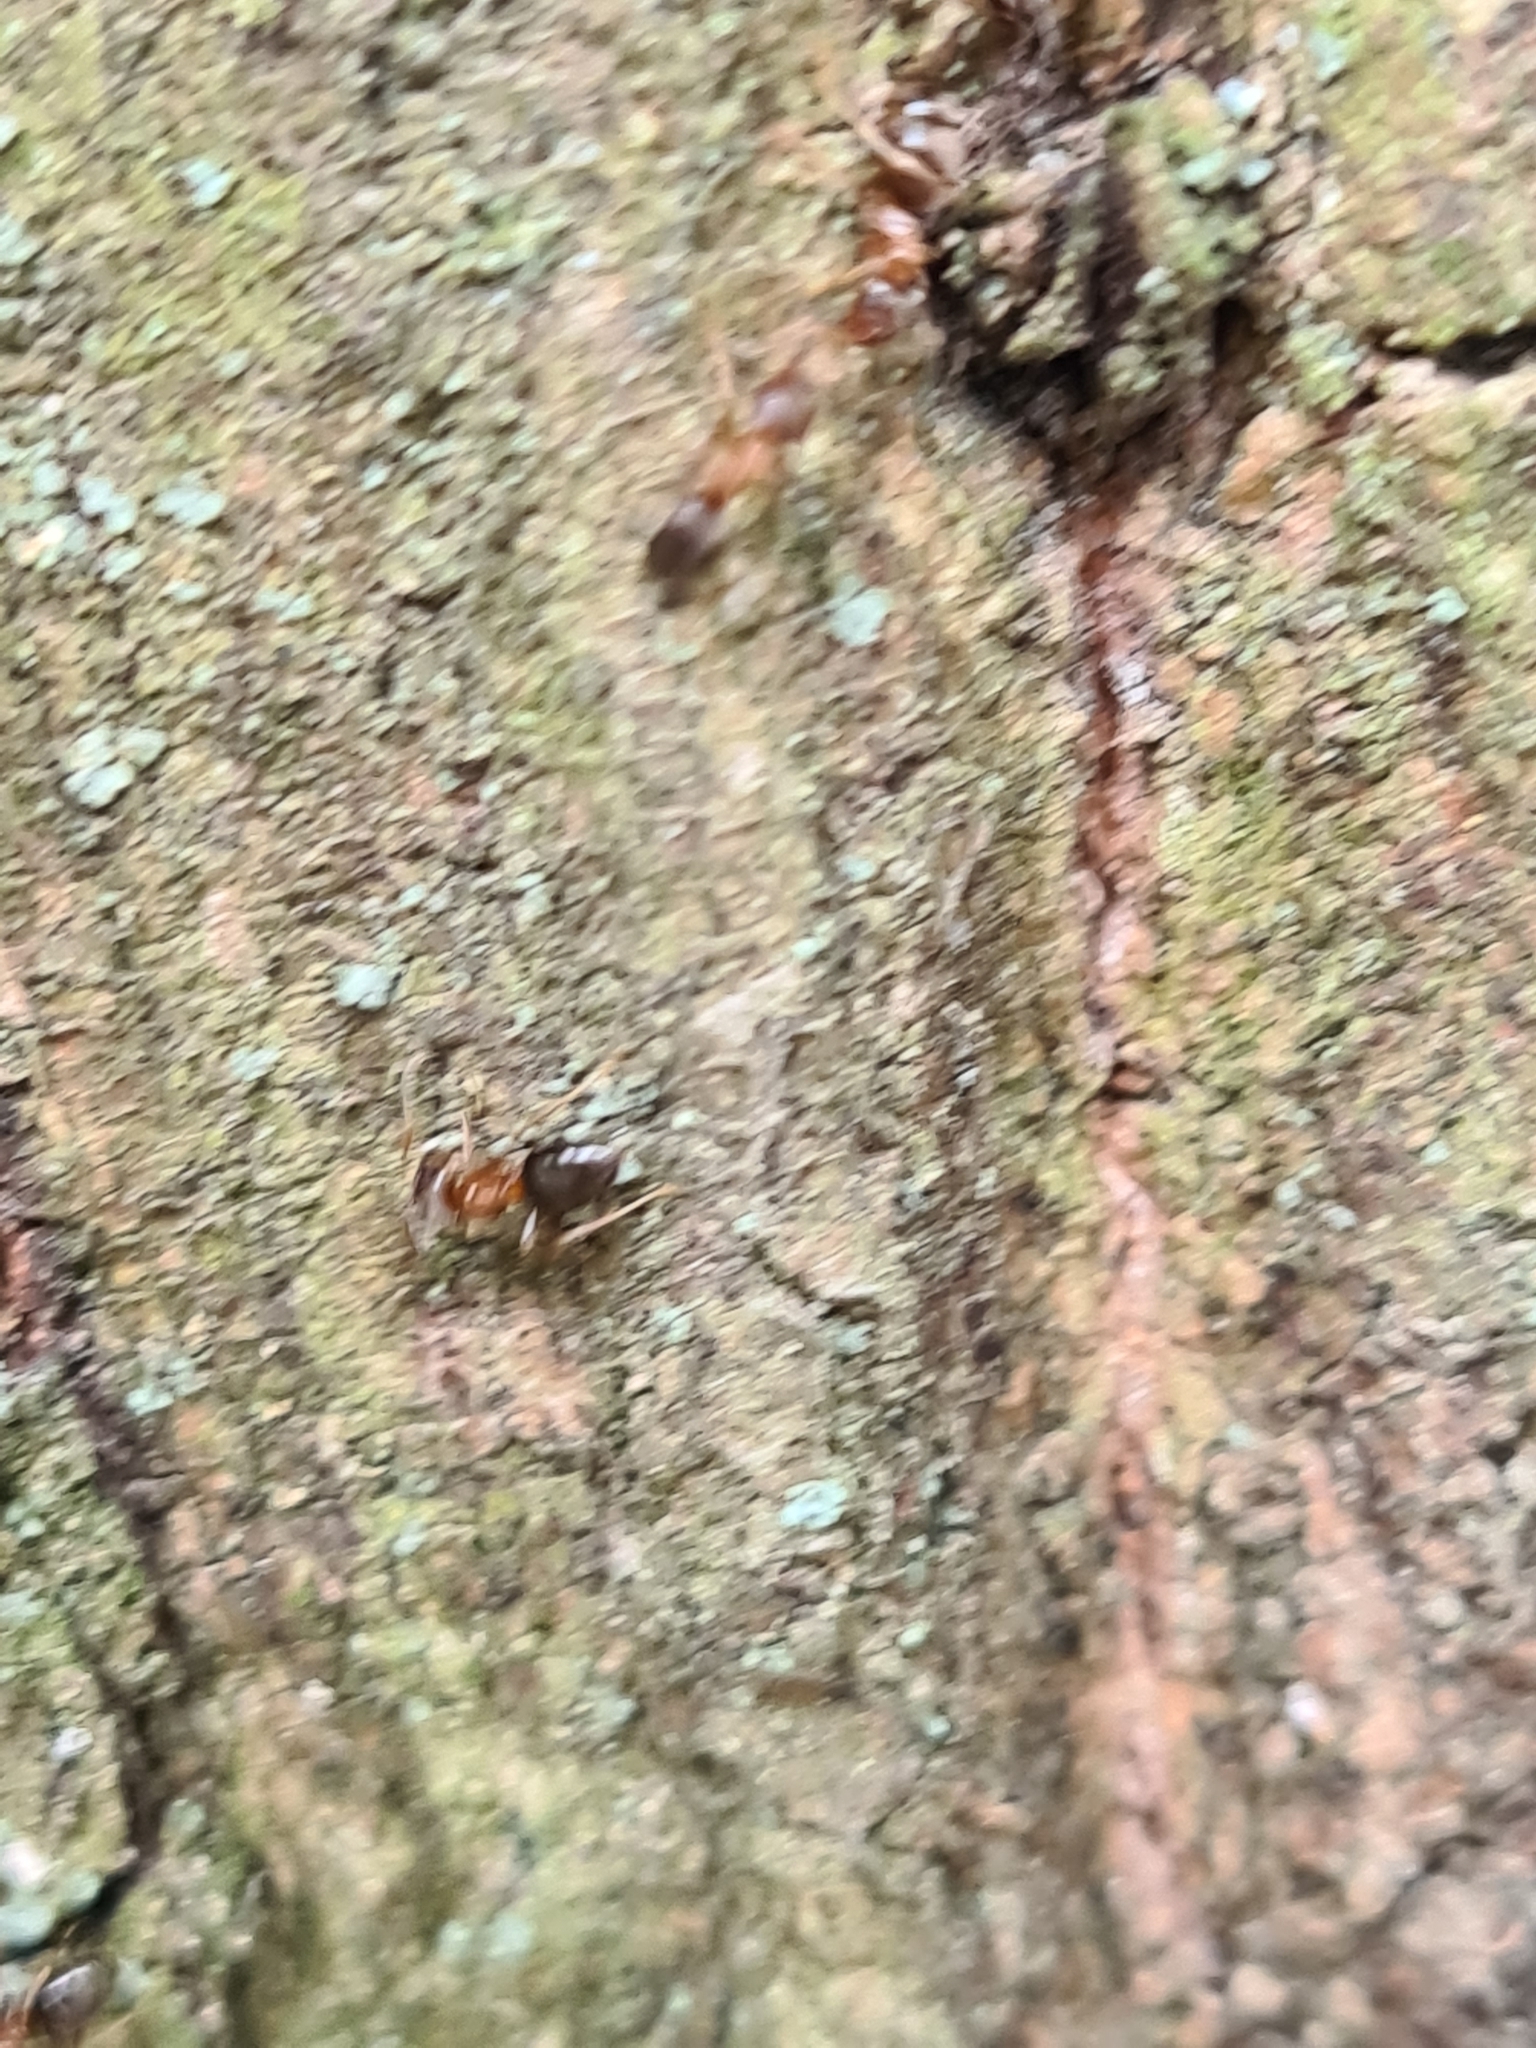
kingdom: Animalia
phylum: Arthropoda
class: Insecta
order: Hymenoptera
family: Formicidae
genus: Lasius
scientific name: Lasius brunneus
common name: Brown ant
